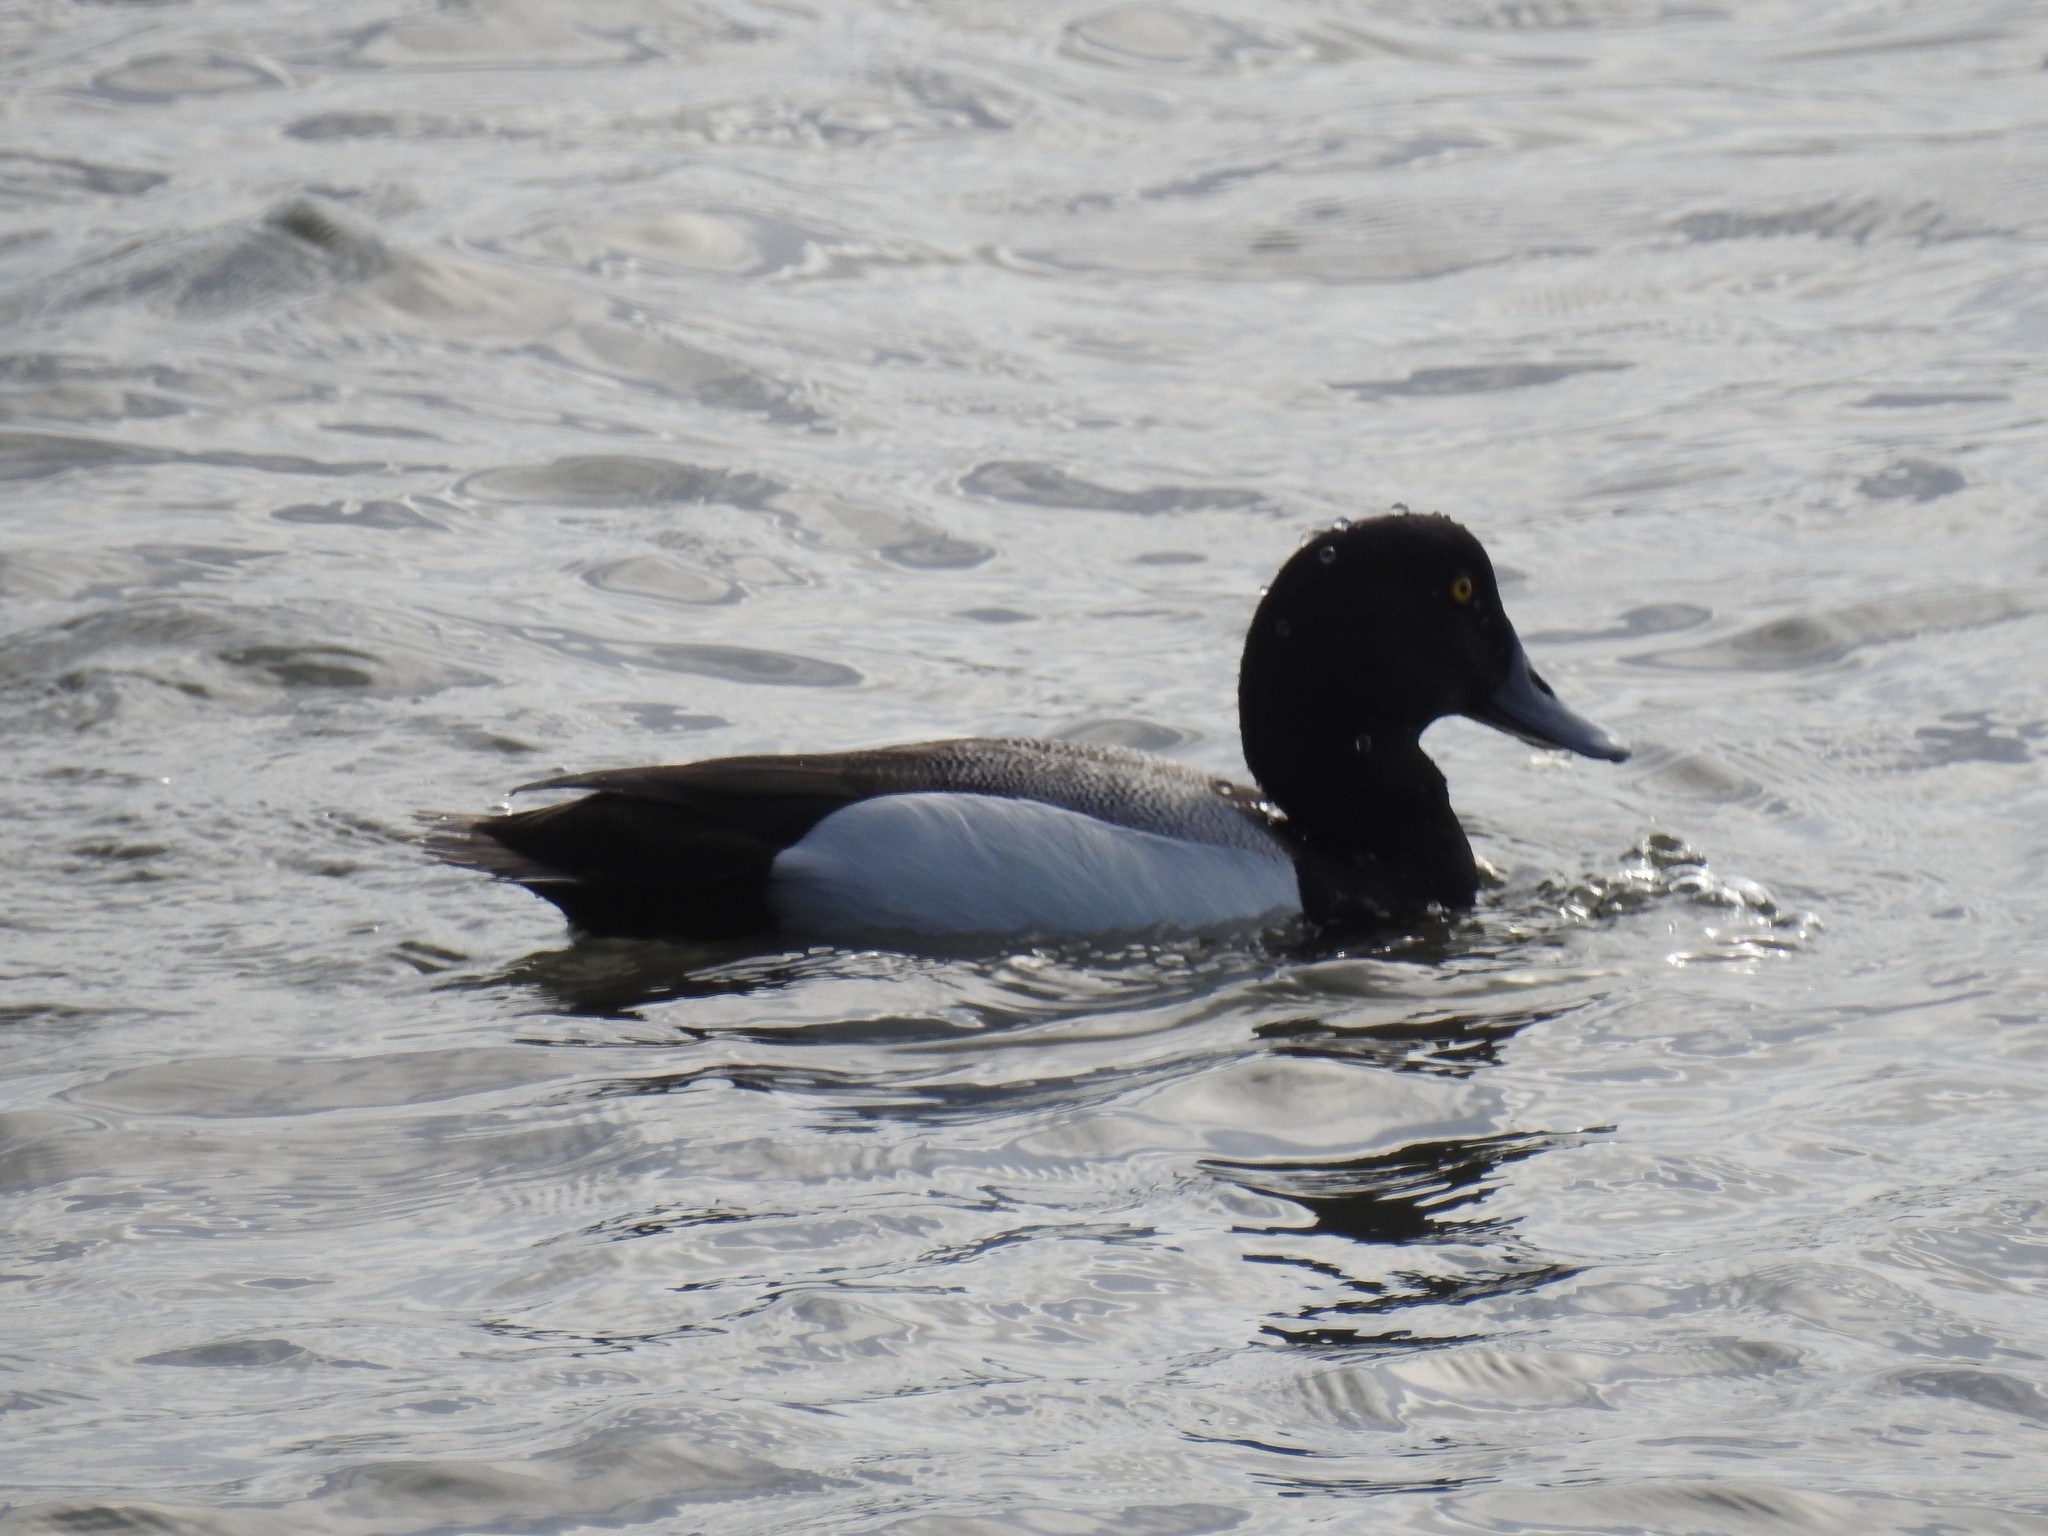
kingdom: Animalia
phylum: Chordata
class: Aves
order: Anseriformes
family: Anatidae
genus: Aythya
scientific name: Aythya marila
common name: Greater scaup
